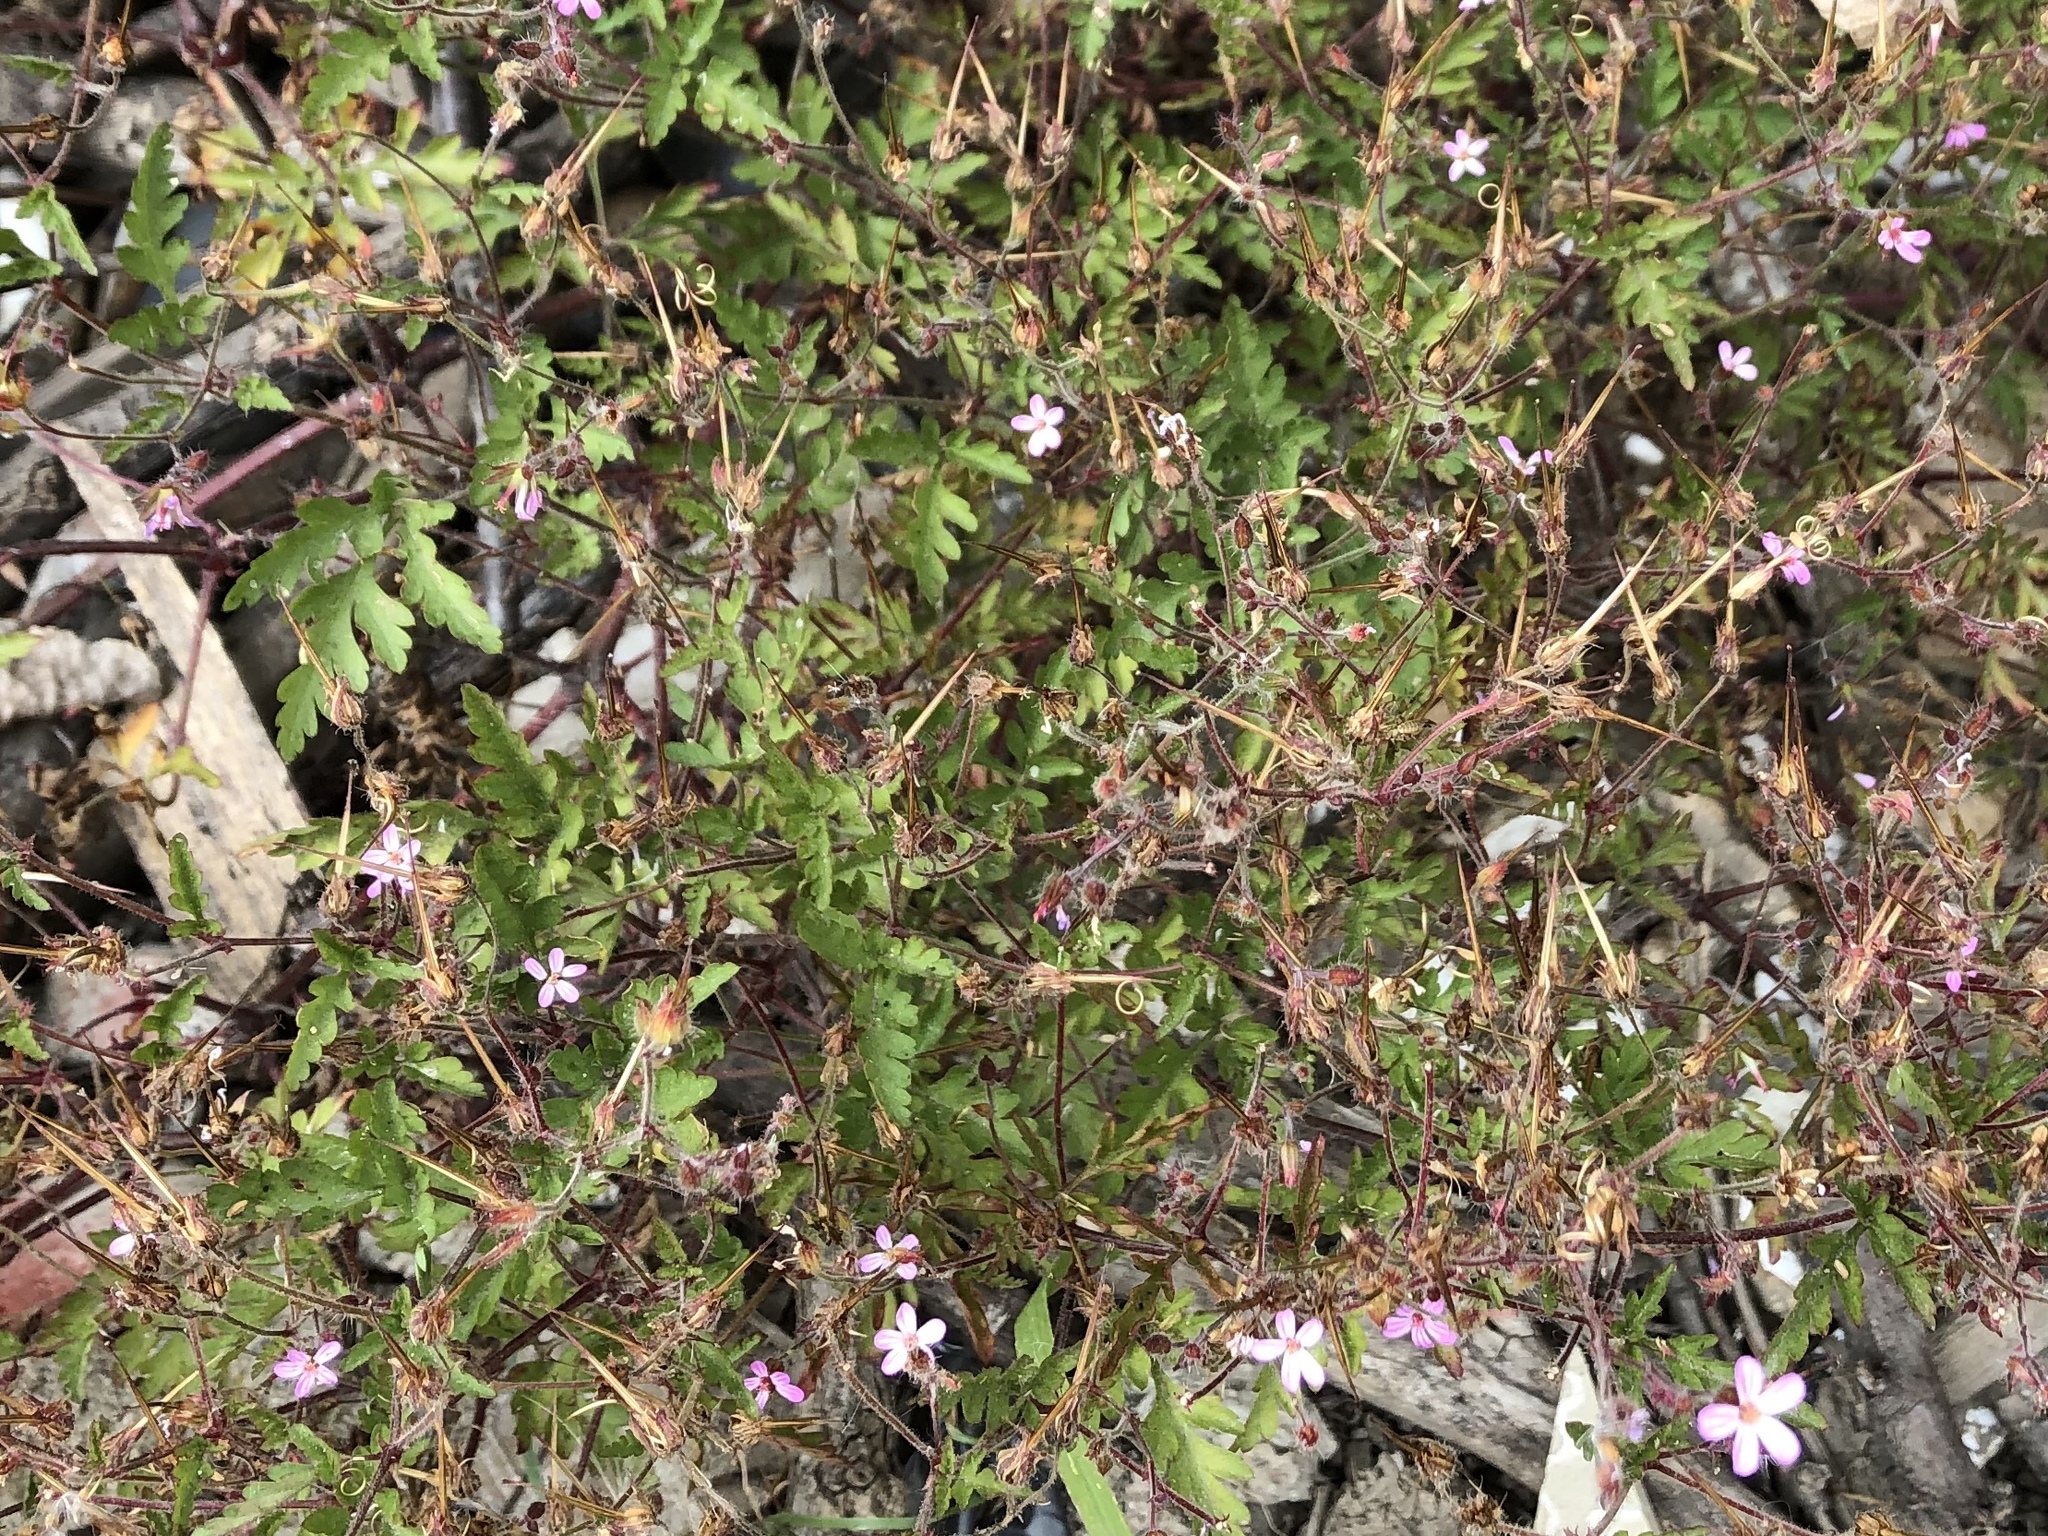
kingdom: Plantae
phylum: Tracheophyta
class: Magnoliopsida
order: Geraniales
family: Geraniaceae
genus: Geranium
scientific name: Geranium robertianum
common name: Herb-robert
